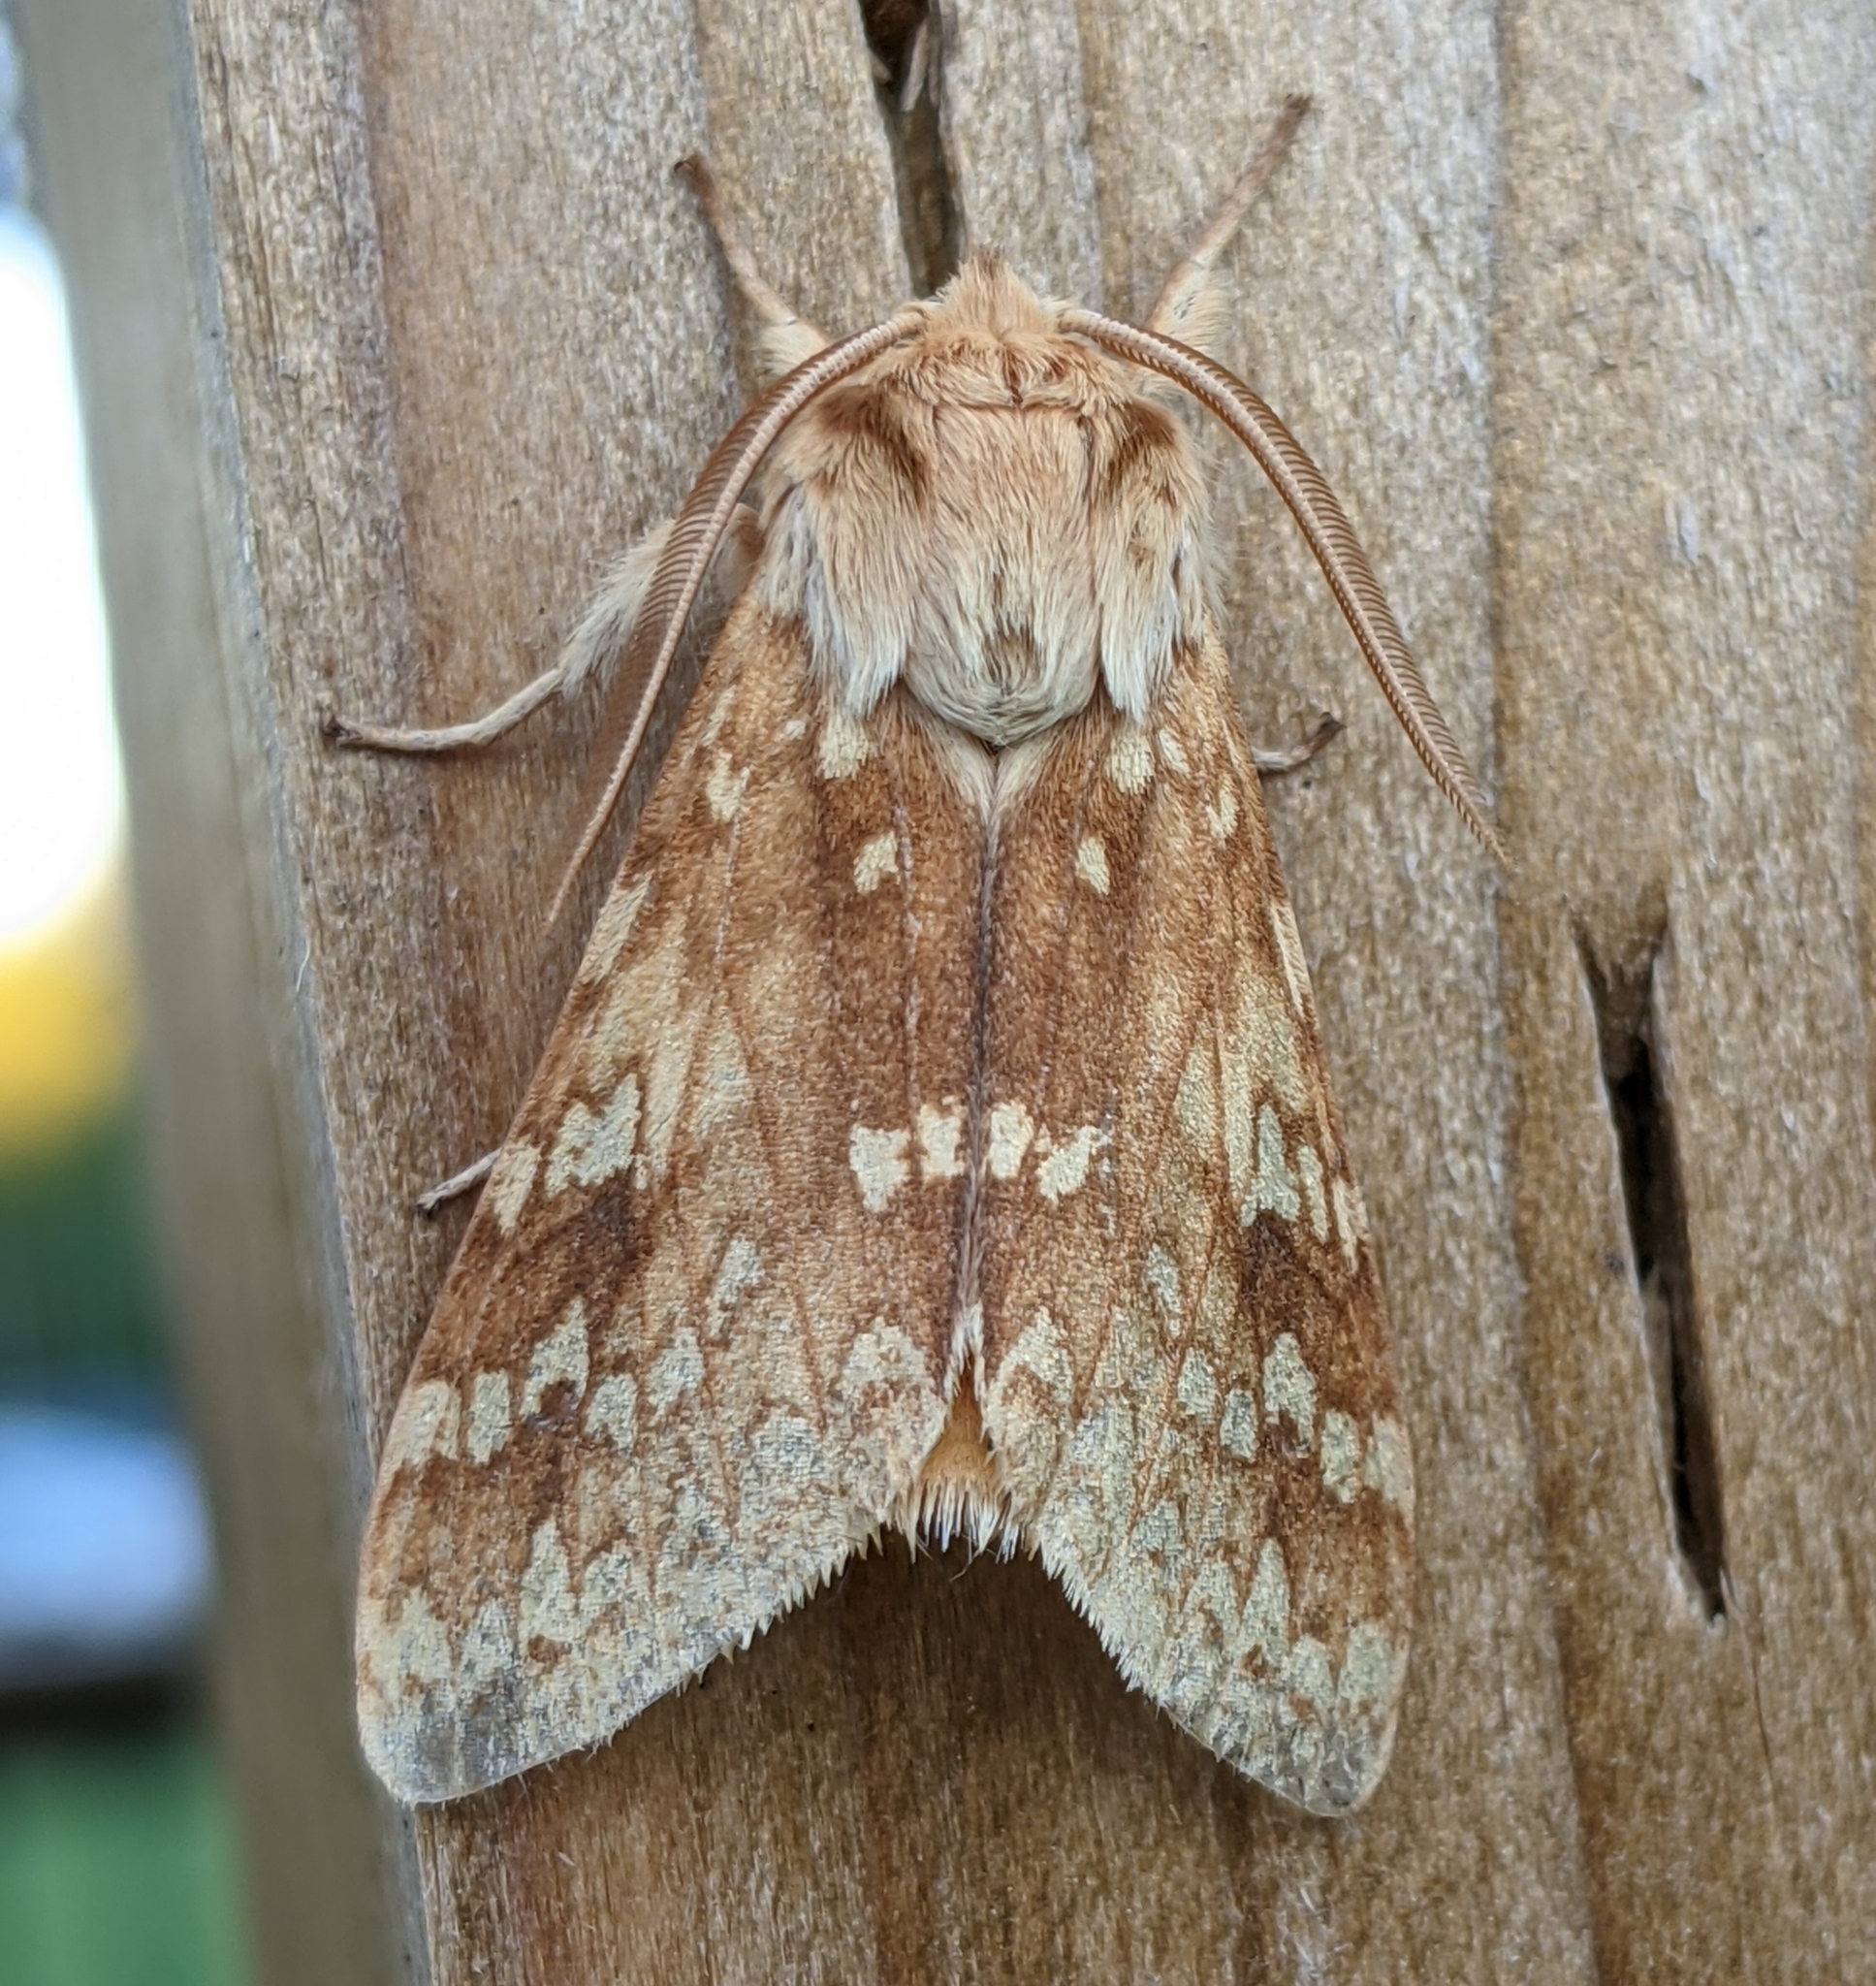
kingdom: Animalia
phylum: Arthropoda
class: Insecta
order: Lepidoptera
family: Erebidae
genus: Lophocampa
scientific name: Lophocampa maculata
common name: Spotted tussock moth
